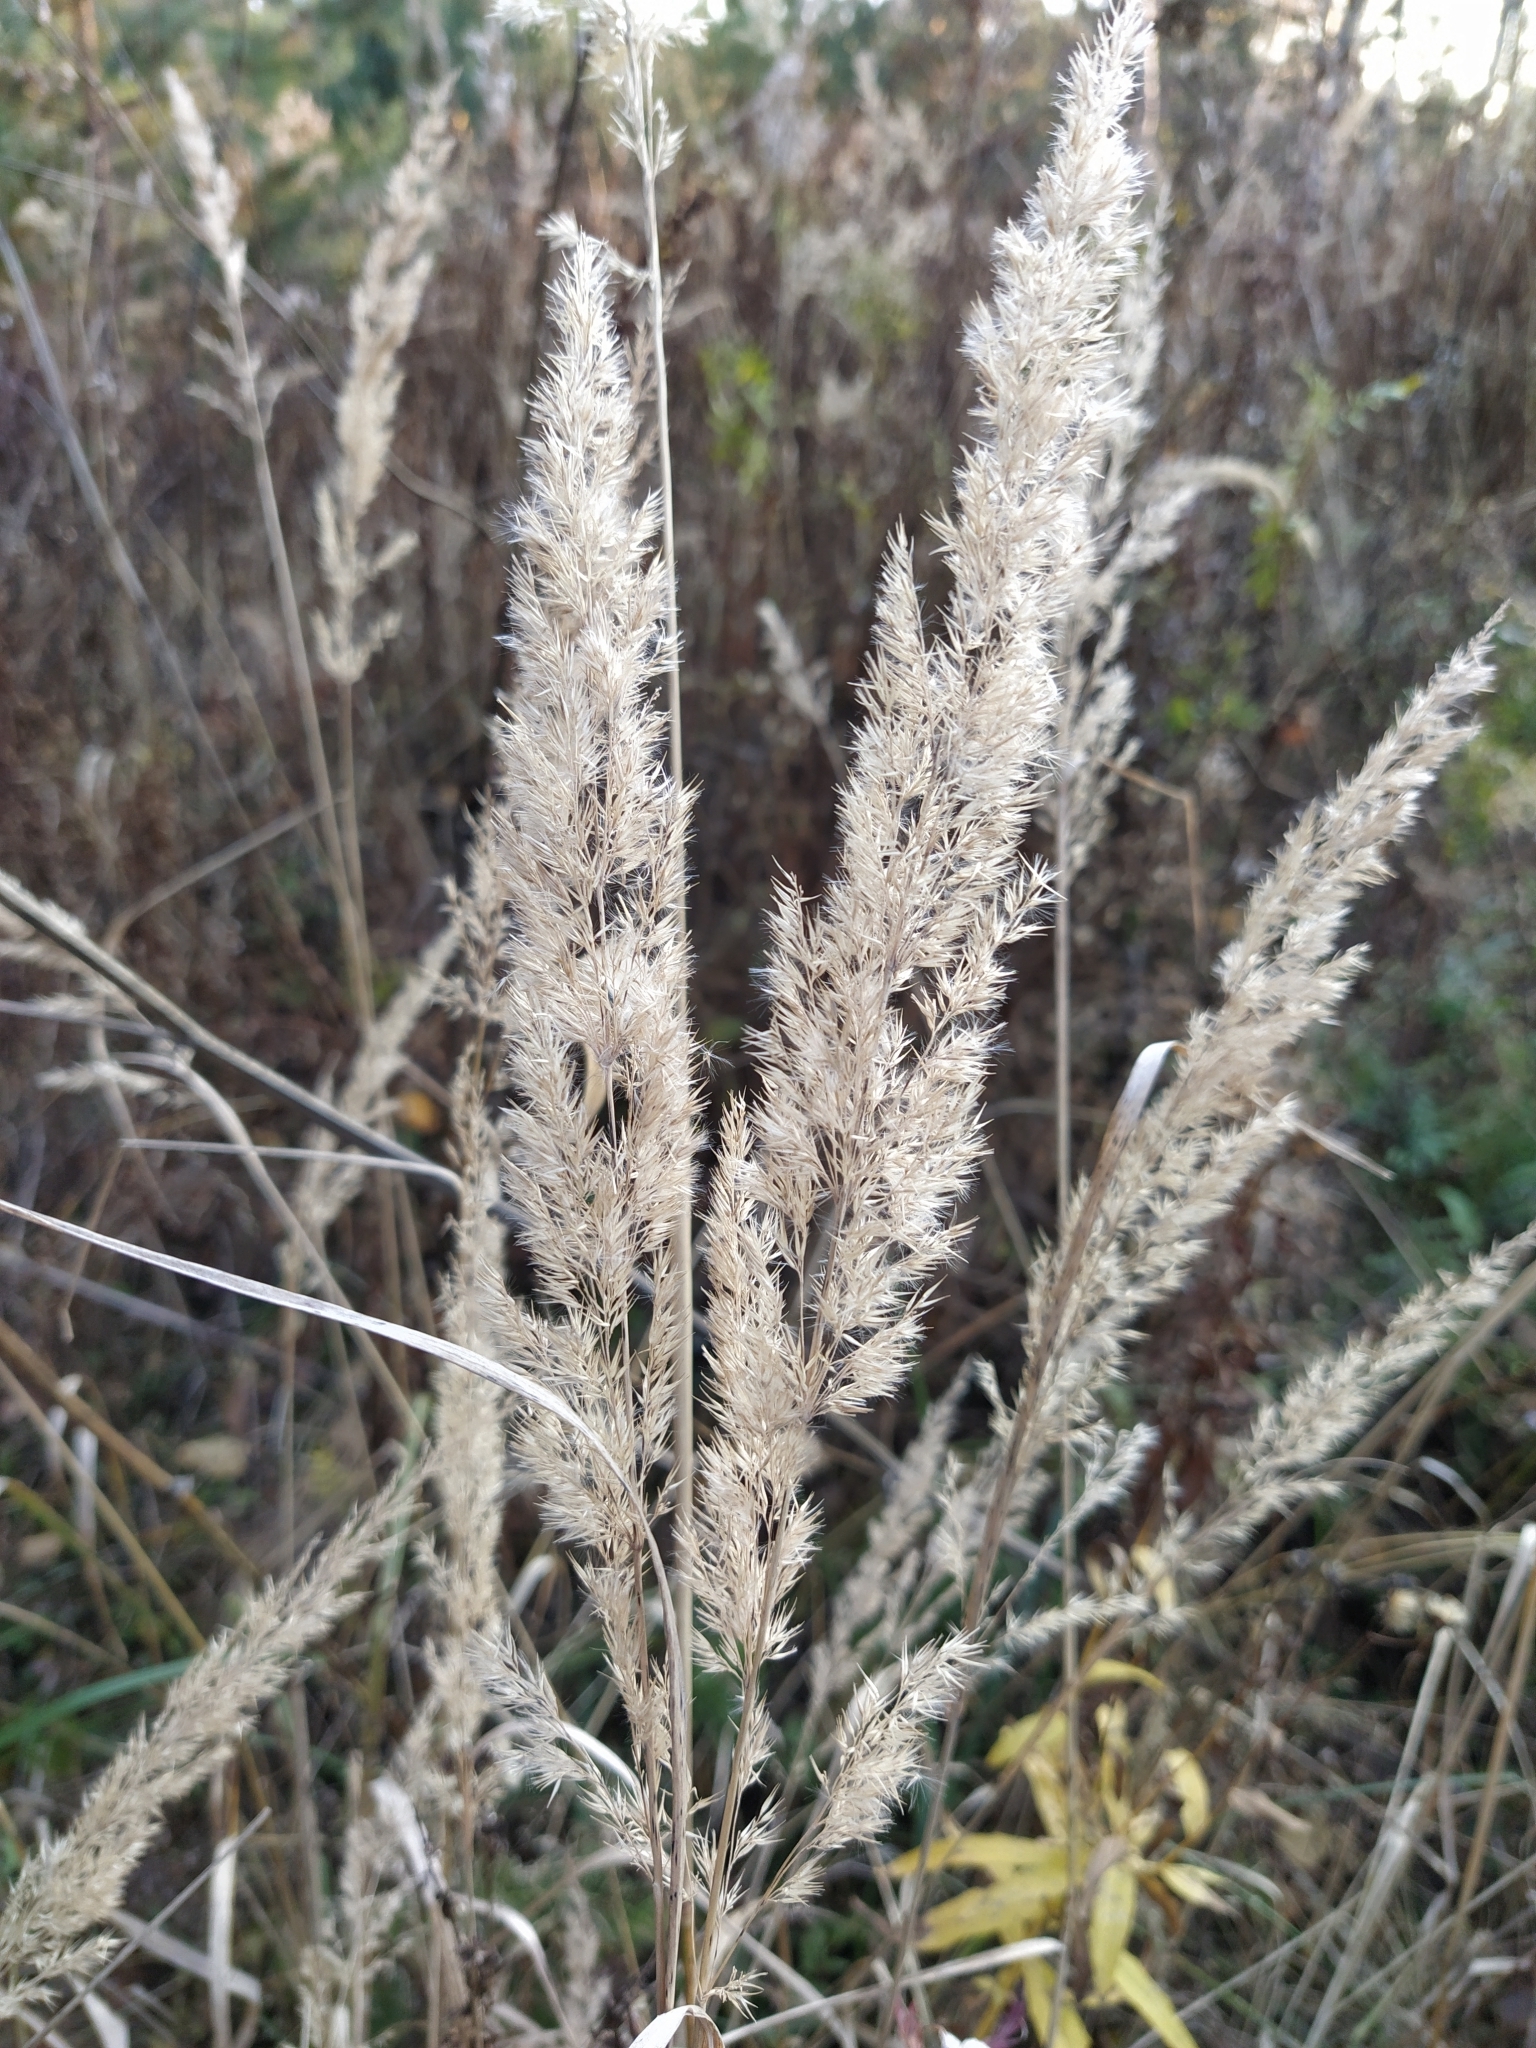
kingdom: Plantae
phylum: Tracheophyta
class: Liliopsida
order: Poales
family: Poaceae
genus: Calamagrostis
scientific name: Calamagrostis epigejos
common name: Wood small-reed
